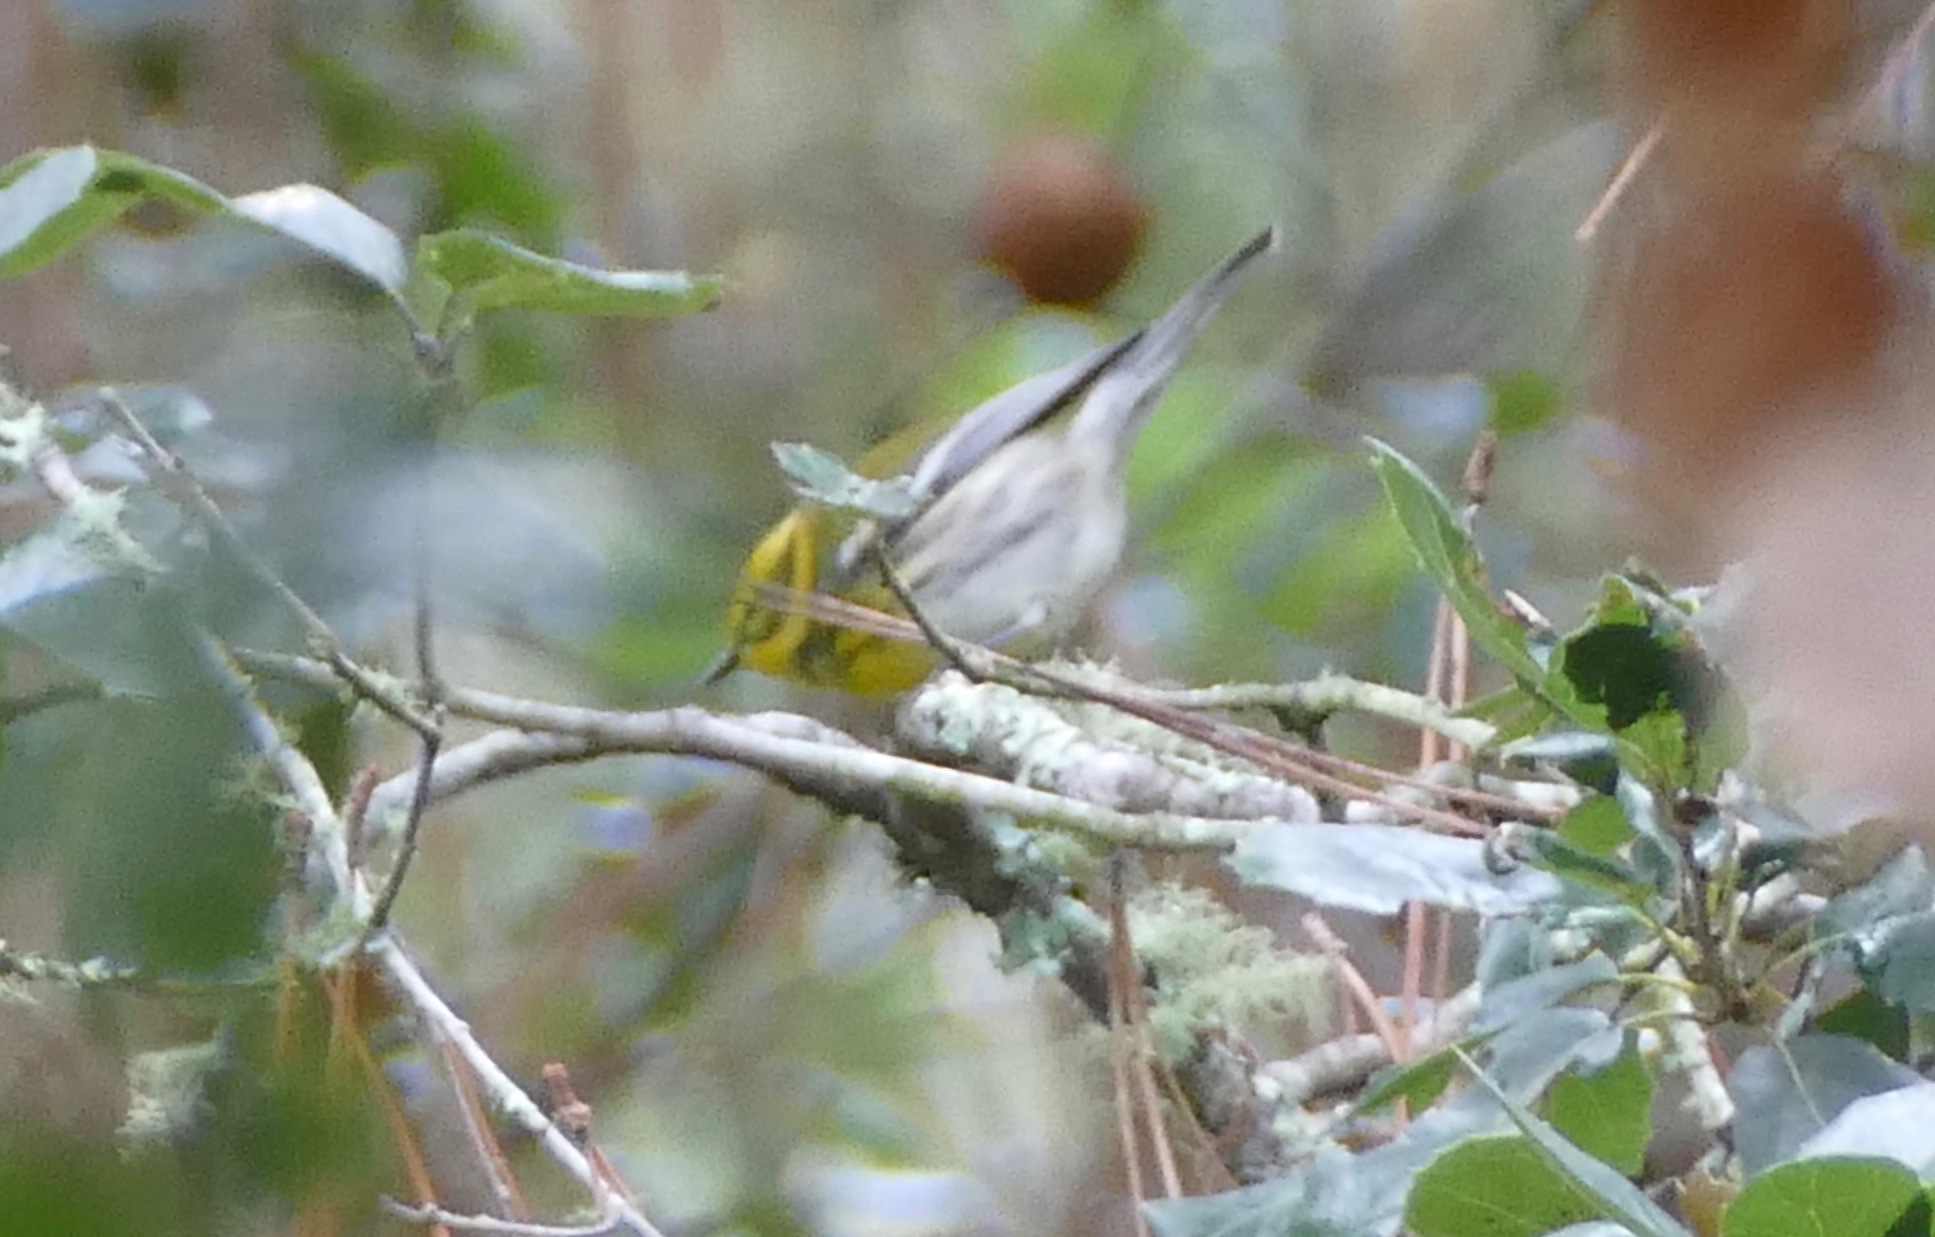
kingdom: Animalia
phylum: Chordata
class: Aves
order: Passeriformes
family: Parulidae
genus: Setophaga
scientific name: Setophaga townsendi
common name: Townsend's warbler
